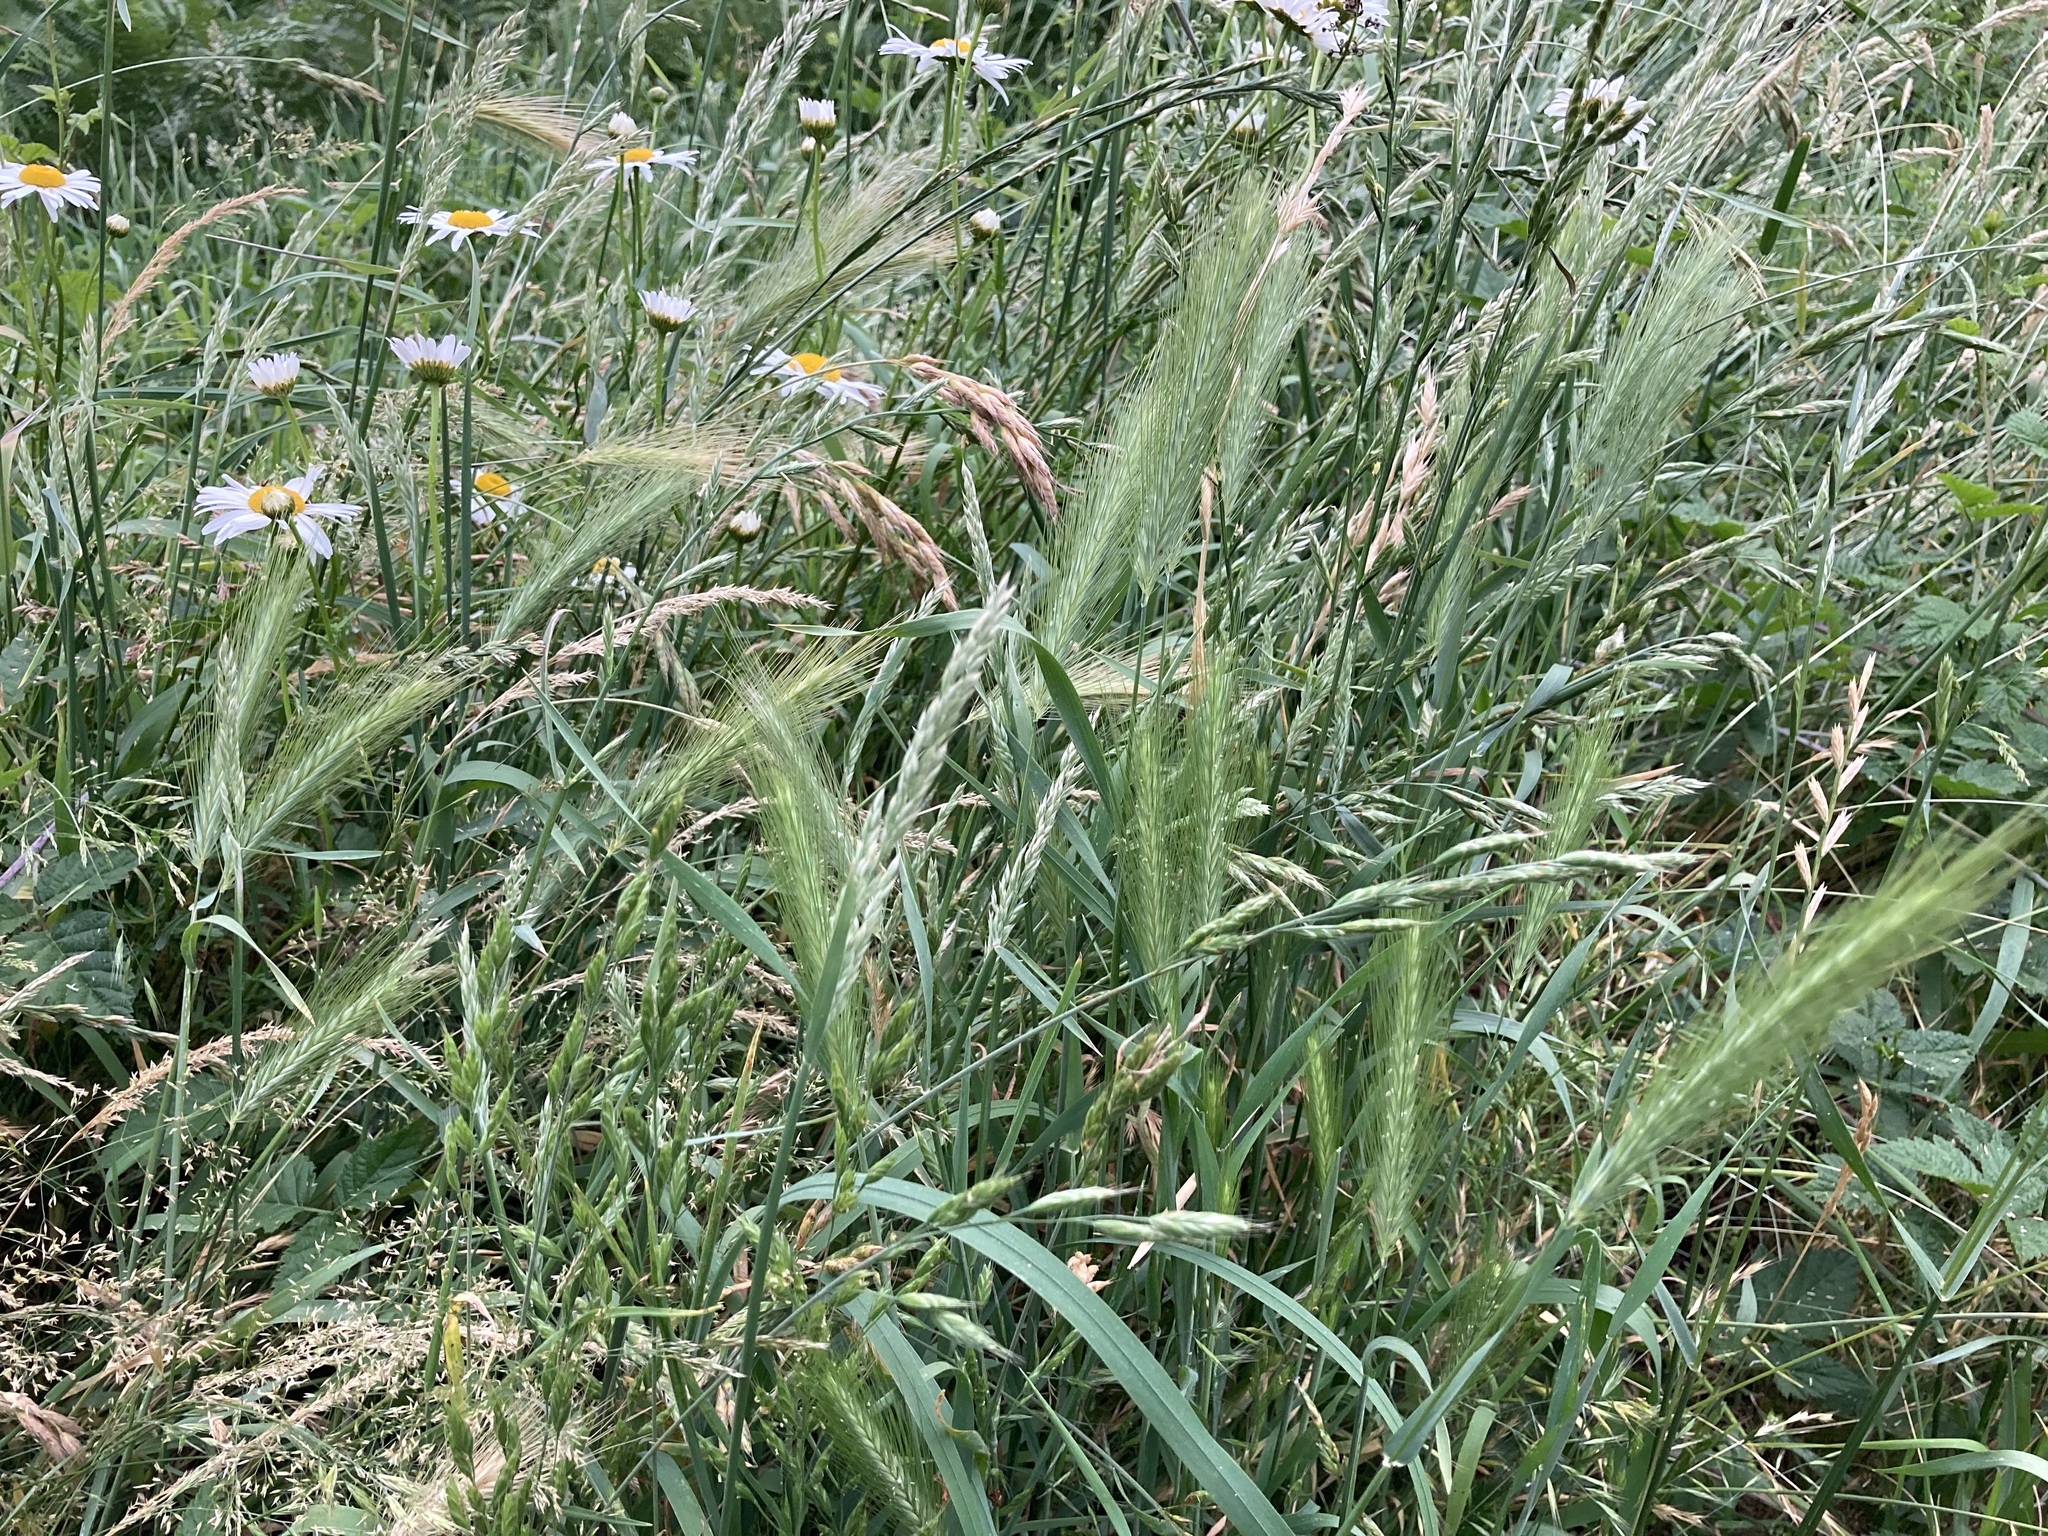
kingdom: Plantae
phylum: Tracheophyta
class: Liliopsida
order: Poales
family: Poaceae
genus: Hordeum
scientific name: Hordeum murinum
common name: Wall barley
